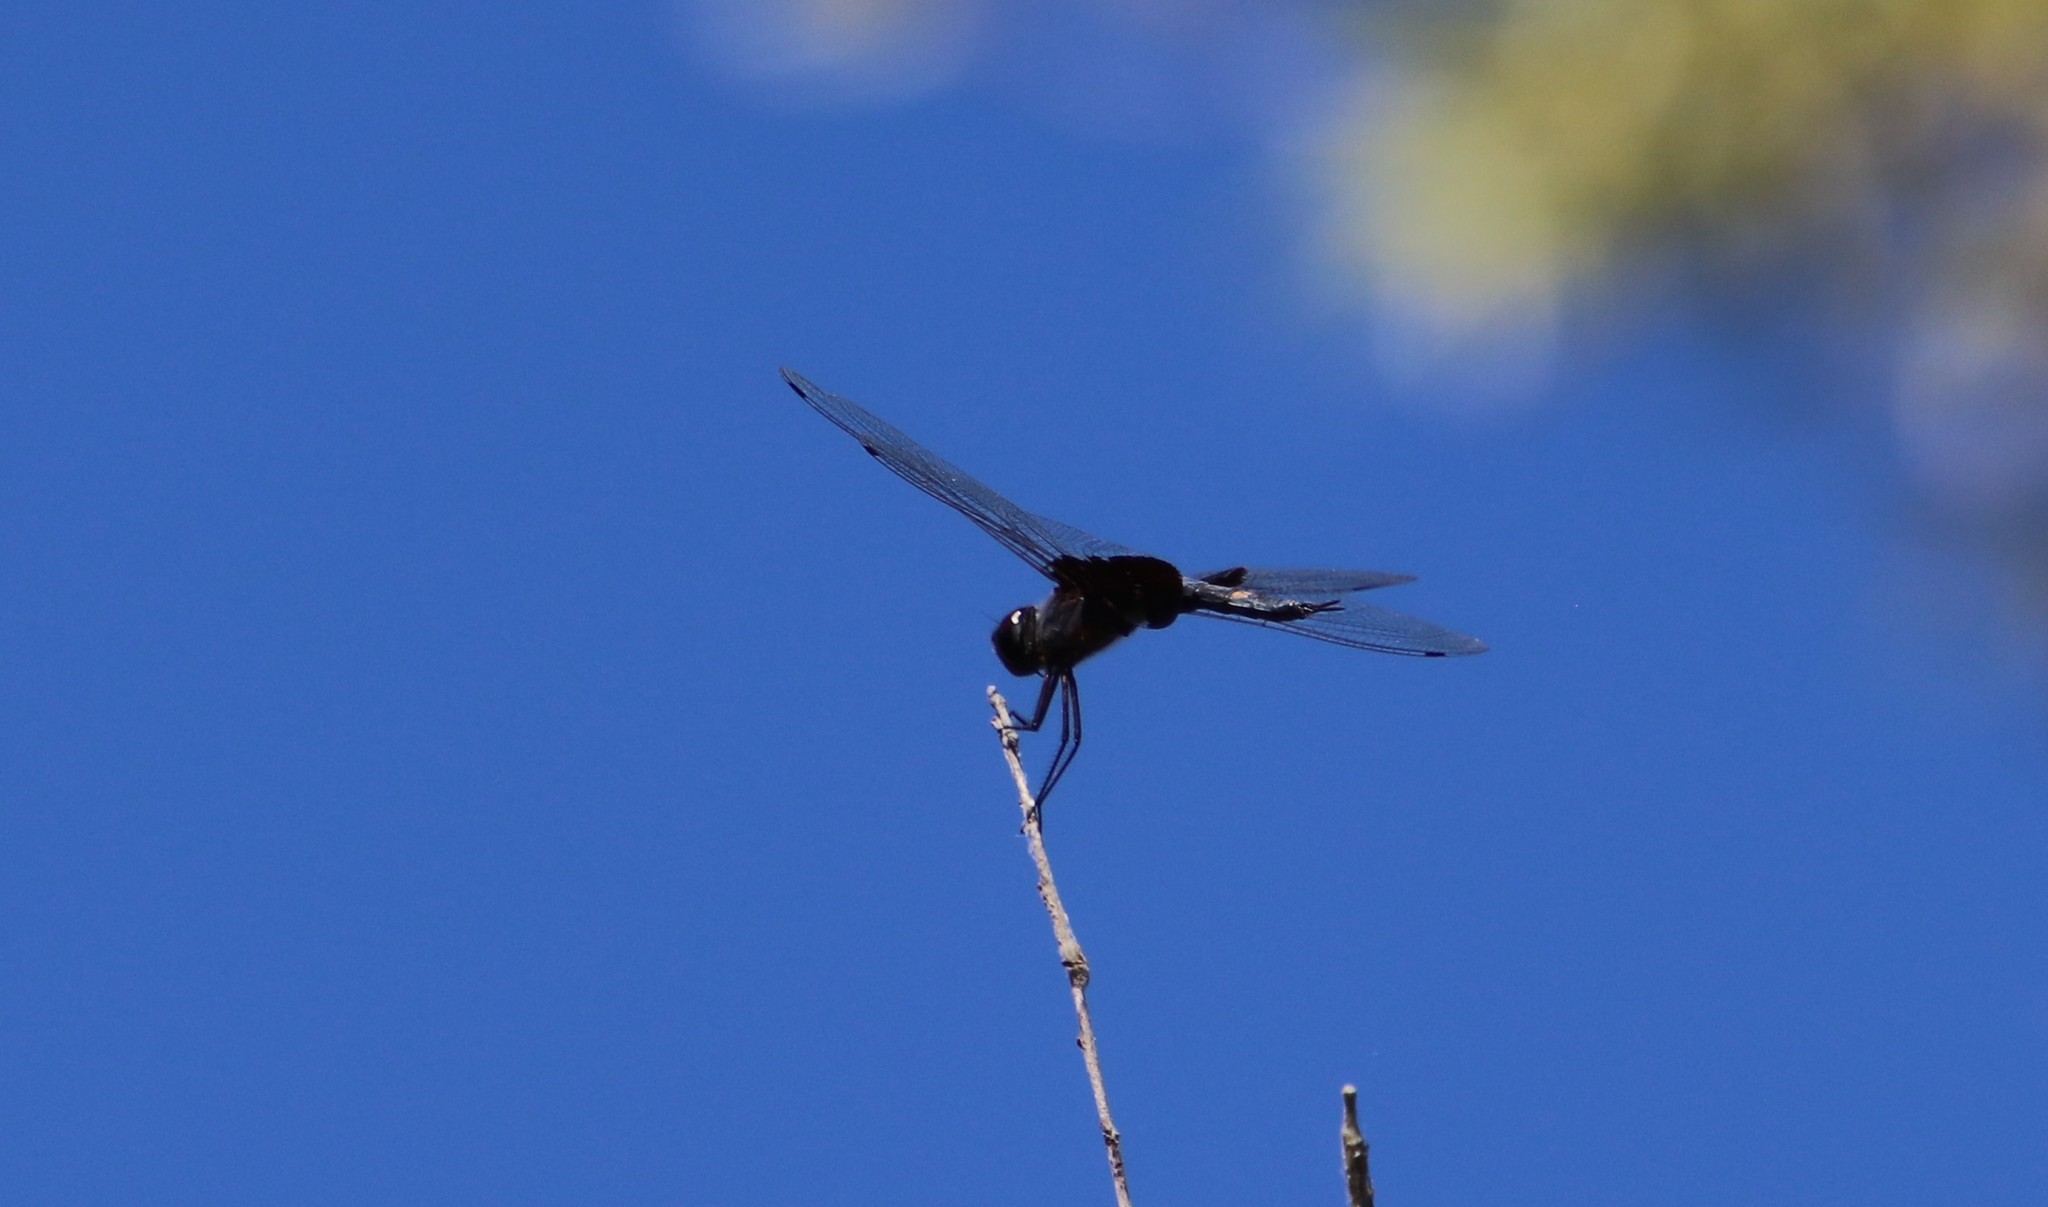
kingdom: Animalia
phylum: Arthropoda
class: Insecta
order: Odonata
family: Libellulidae
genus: Tramea
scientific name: Tramea lacerata
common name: Black saddlebags
